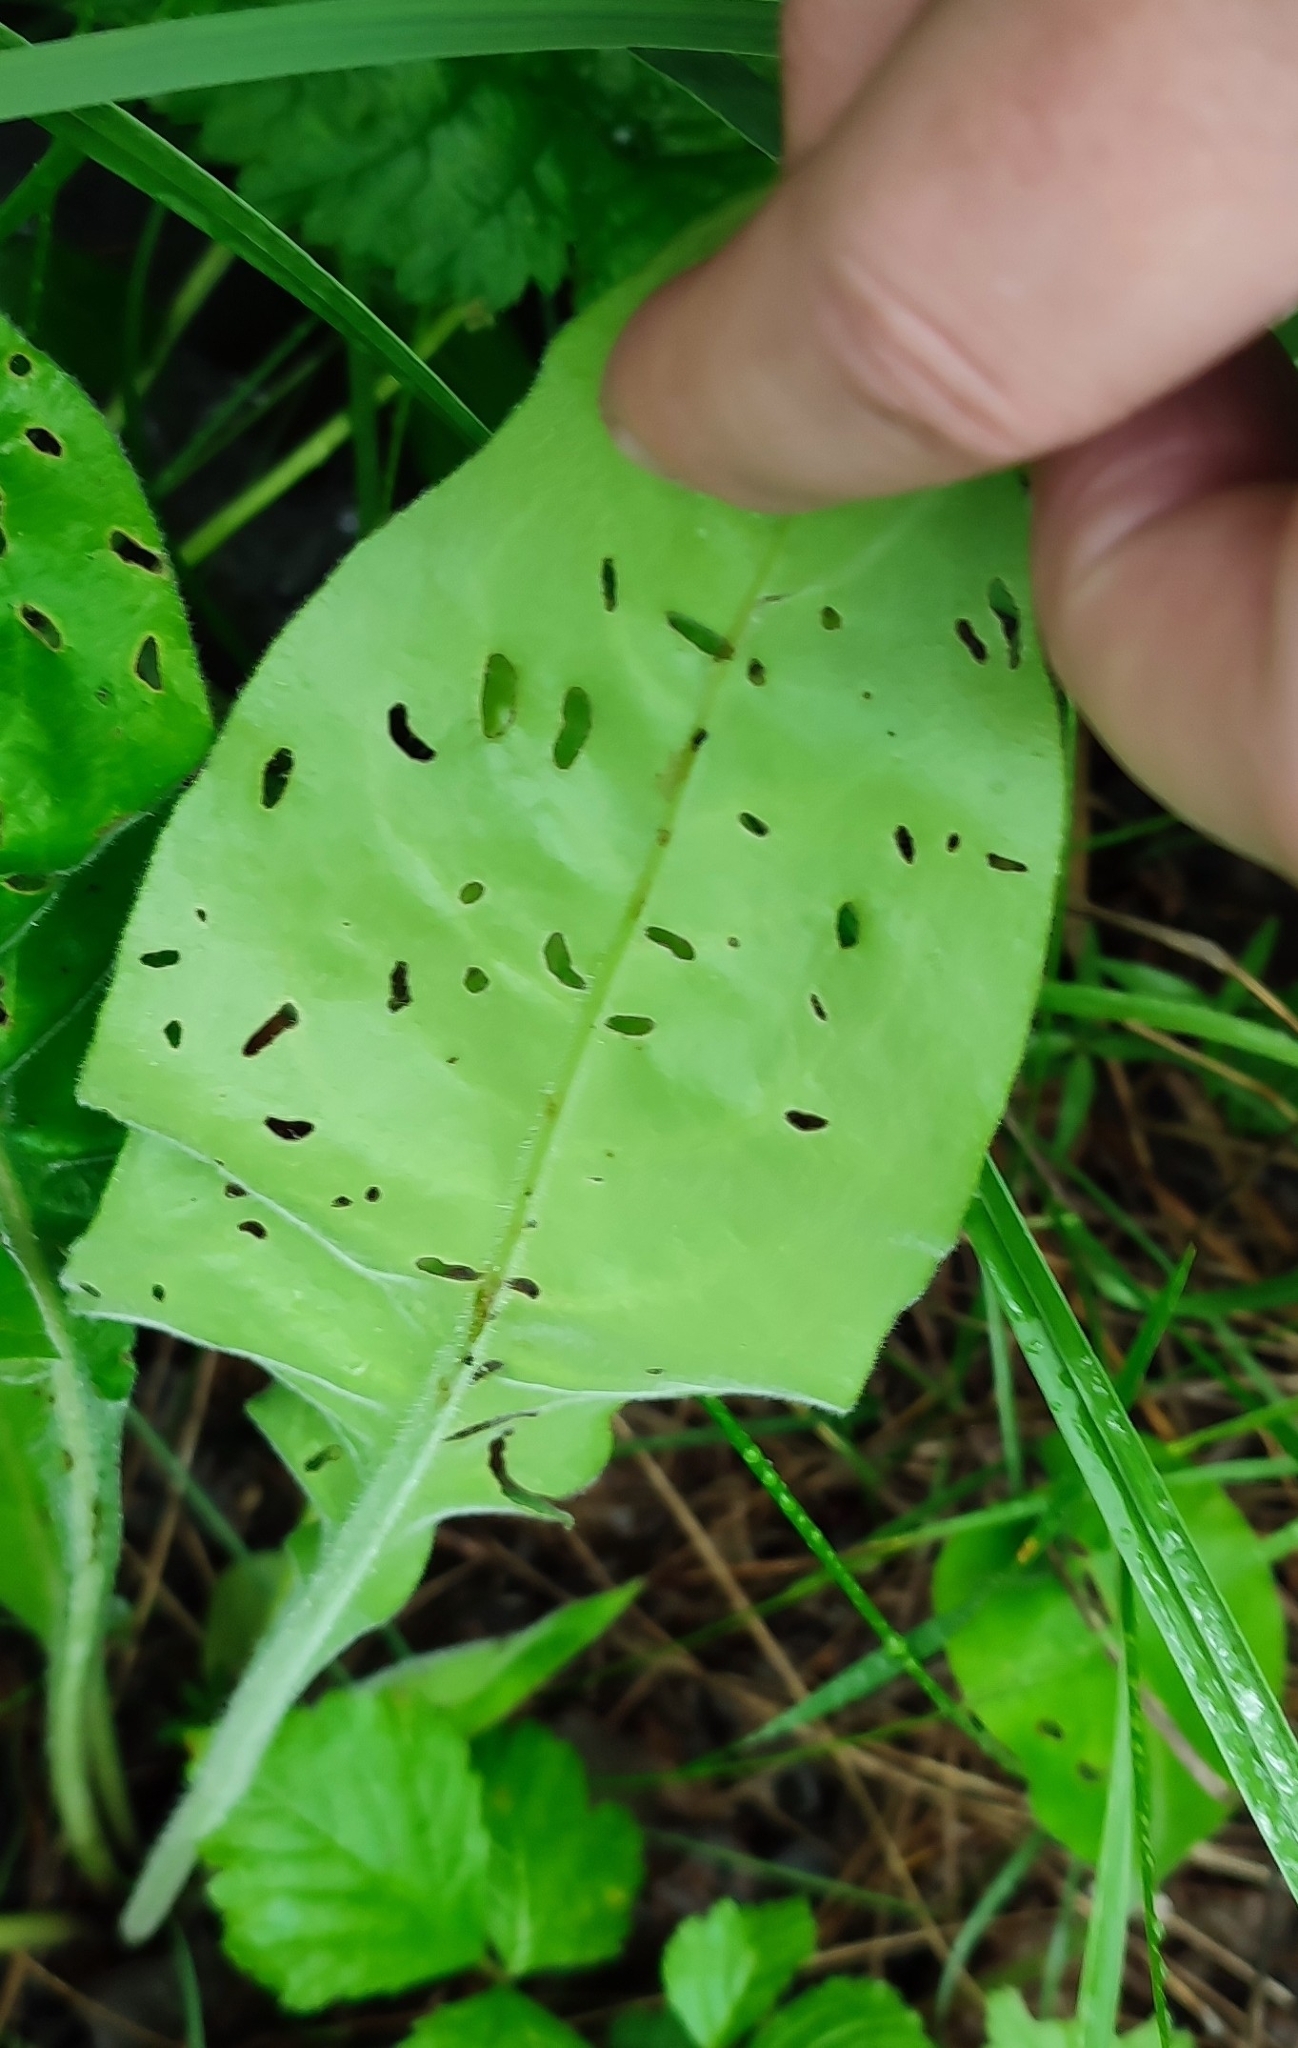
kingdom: Plantae
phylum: Tracheophyta
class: Magnoliopsida
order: Boraginales
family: Boraginaceae
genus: Pulmonaria
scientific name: Pulmonaria mollis
